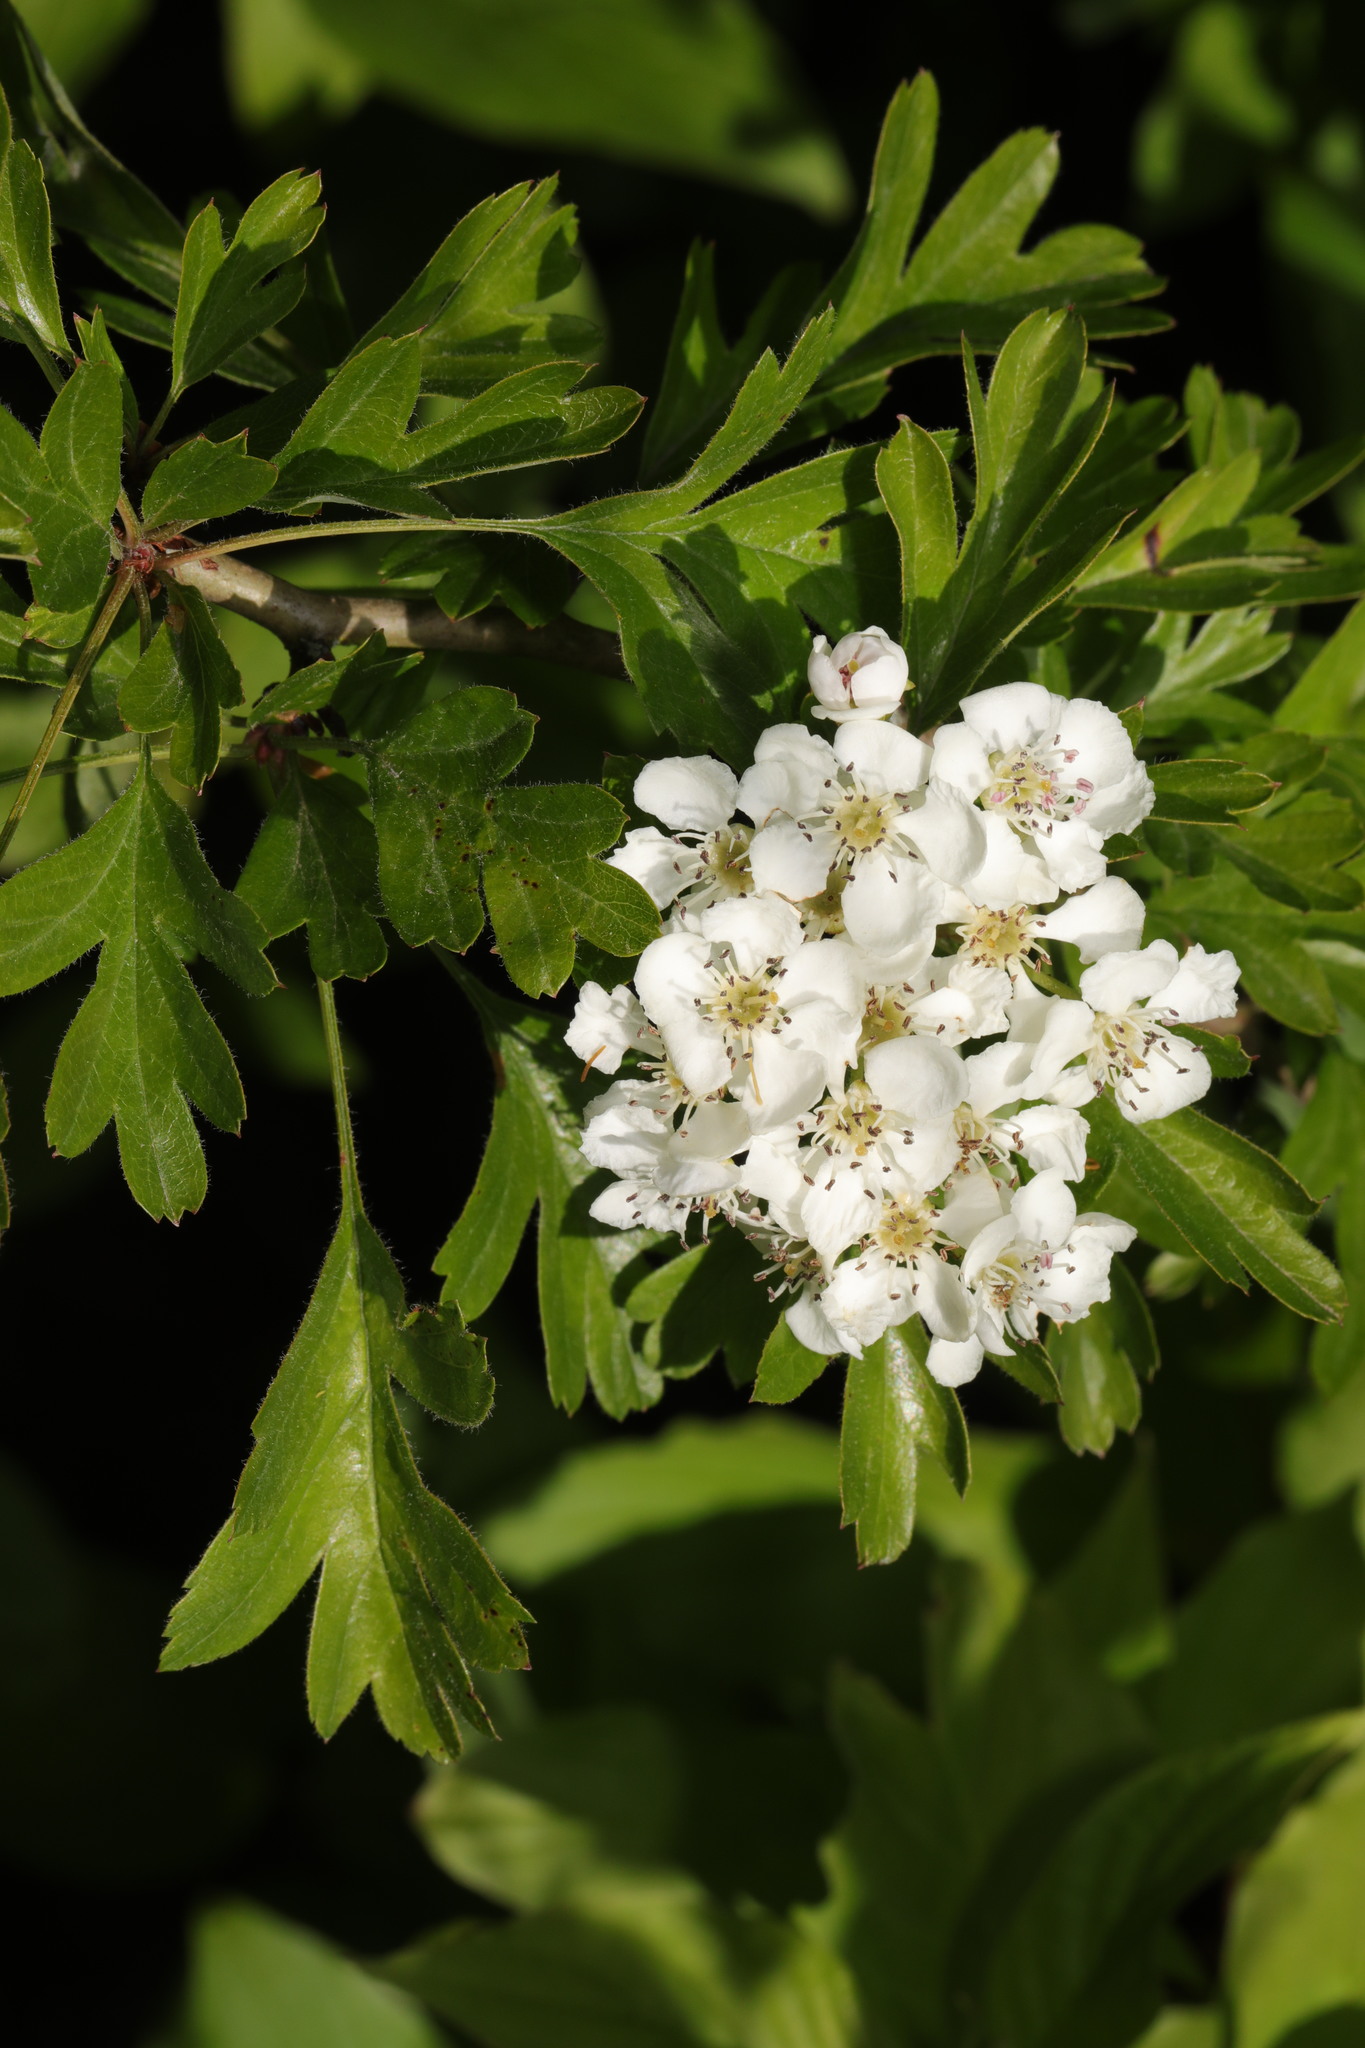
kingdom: Plantae
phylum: Tracheophyta
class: Magnoliopsida
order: Rosales
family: Rosaceae
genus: Crataegus
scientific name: Crataegus monogyna
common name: Hawthorn
